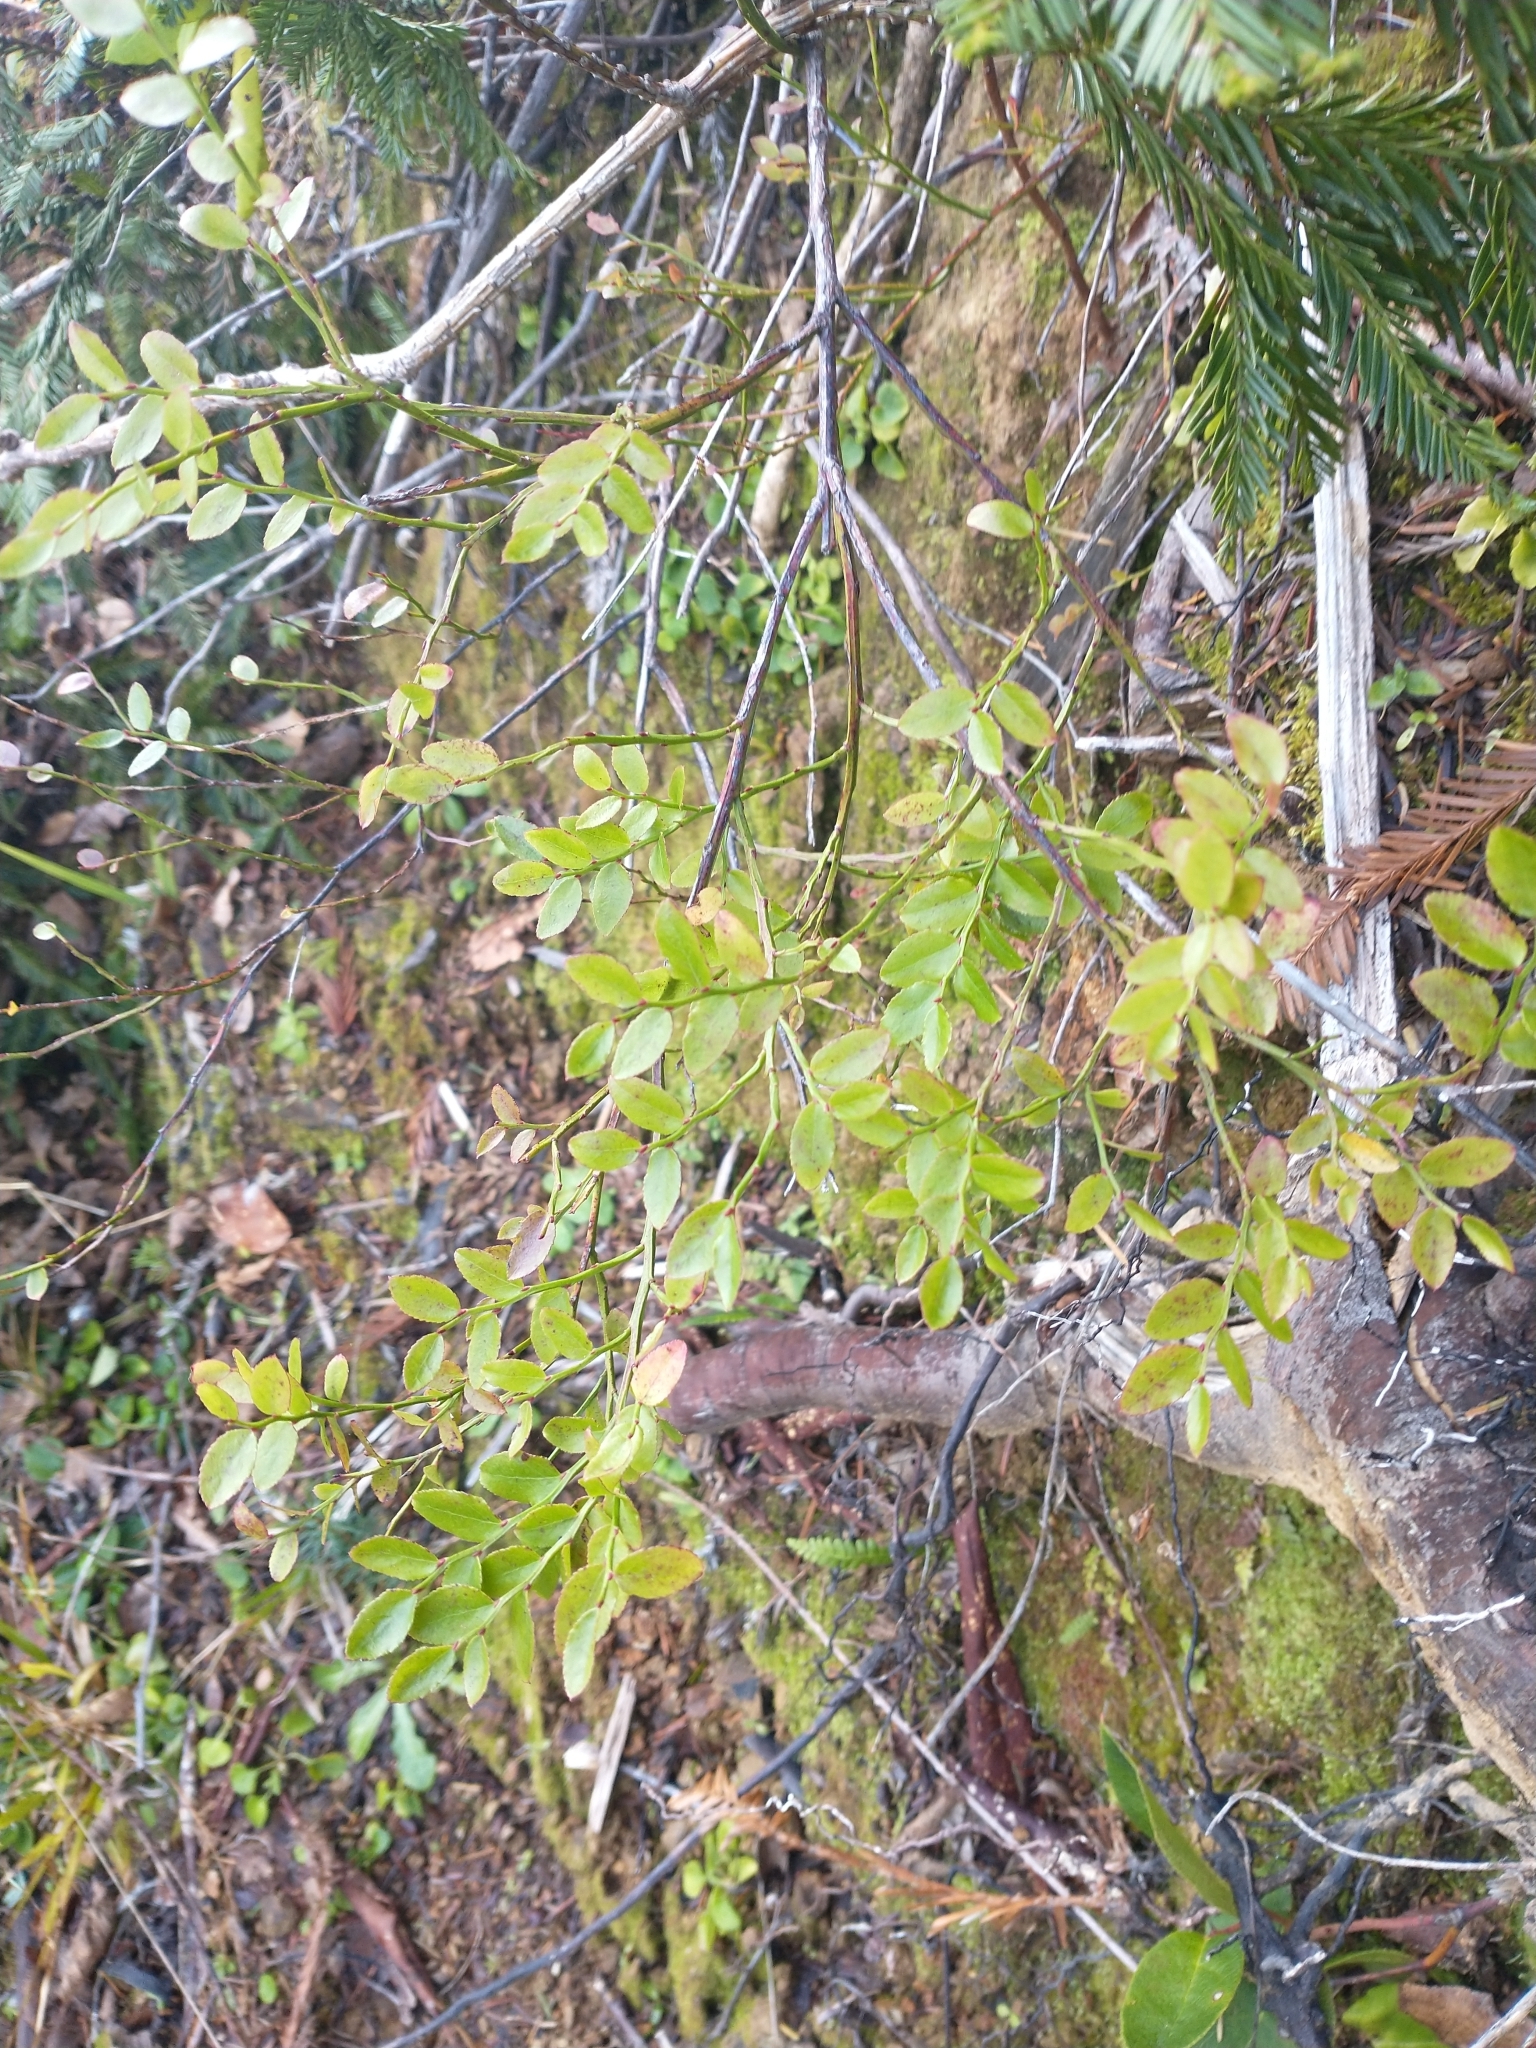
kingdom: Plantae
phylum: Tracheophyta
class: Magnoliopsida
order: Ericales
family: Ericaceae
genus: Vaccinium
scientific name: Vaccinium parvifolium
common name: Red-huckleberry
